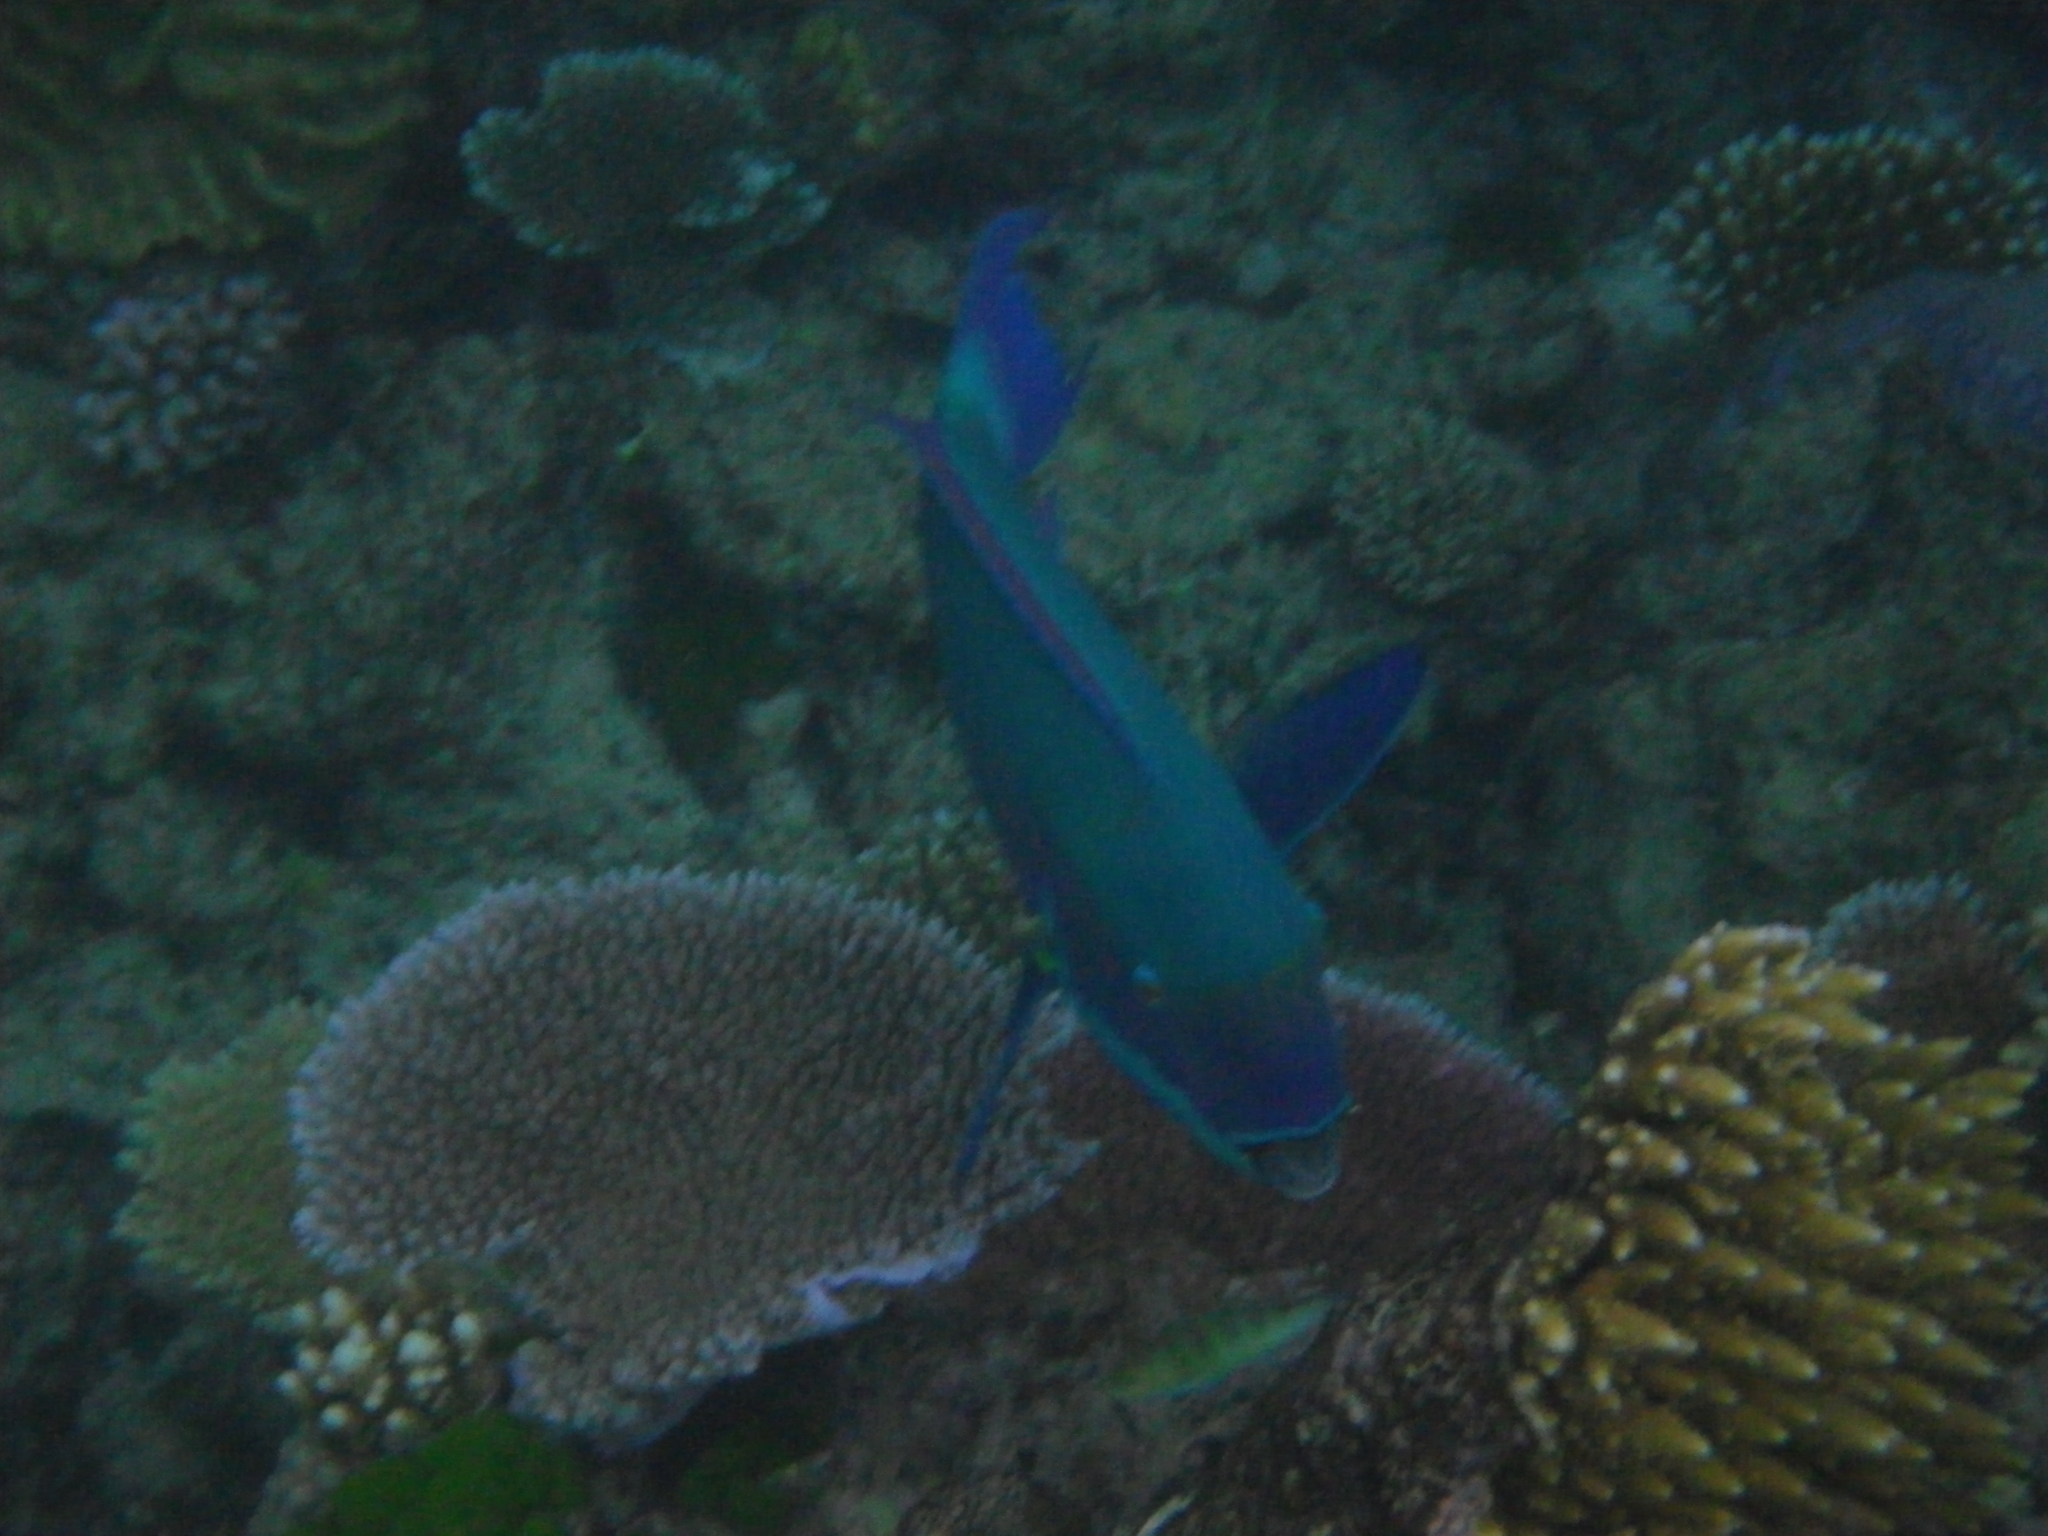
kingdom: Animalia
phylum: Chordata
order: Perciformes
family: Scaridae
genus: Chlorurus
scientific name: Chlorurus microrhinos
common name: Steephead parrotfish
